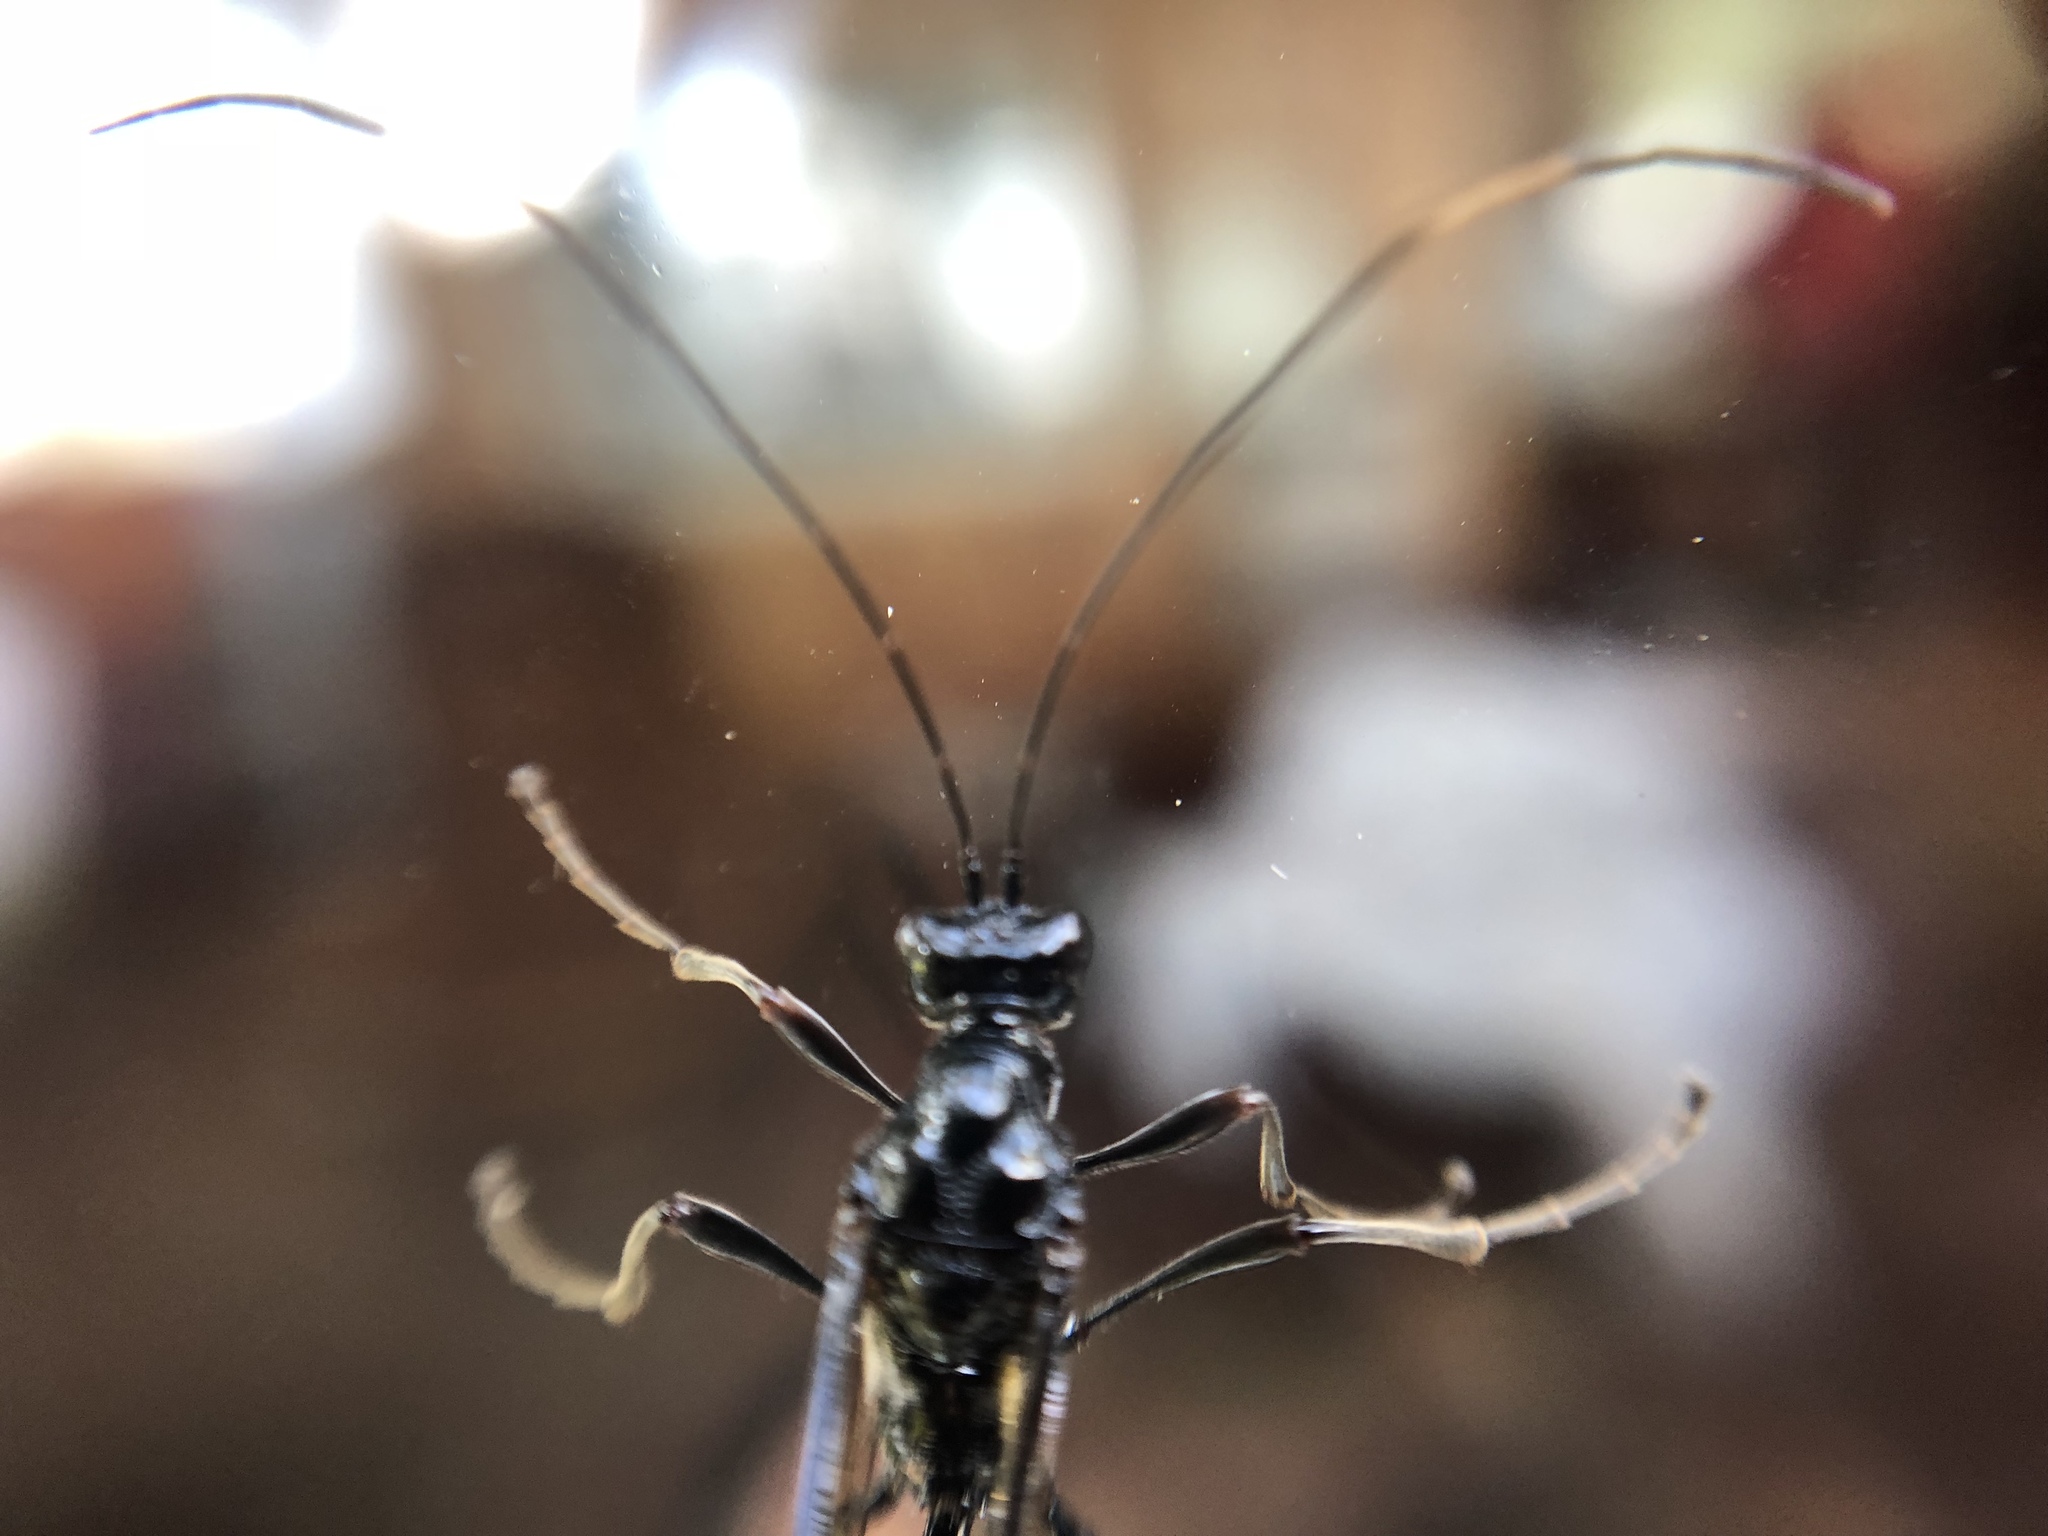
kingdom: Animalia
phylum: Arthropoda
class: Insecta
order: Hymenoptera
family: Pelecinidae
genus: Pelecinus
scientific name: Pelecinus polyturator
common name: American pelecinid wasp
